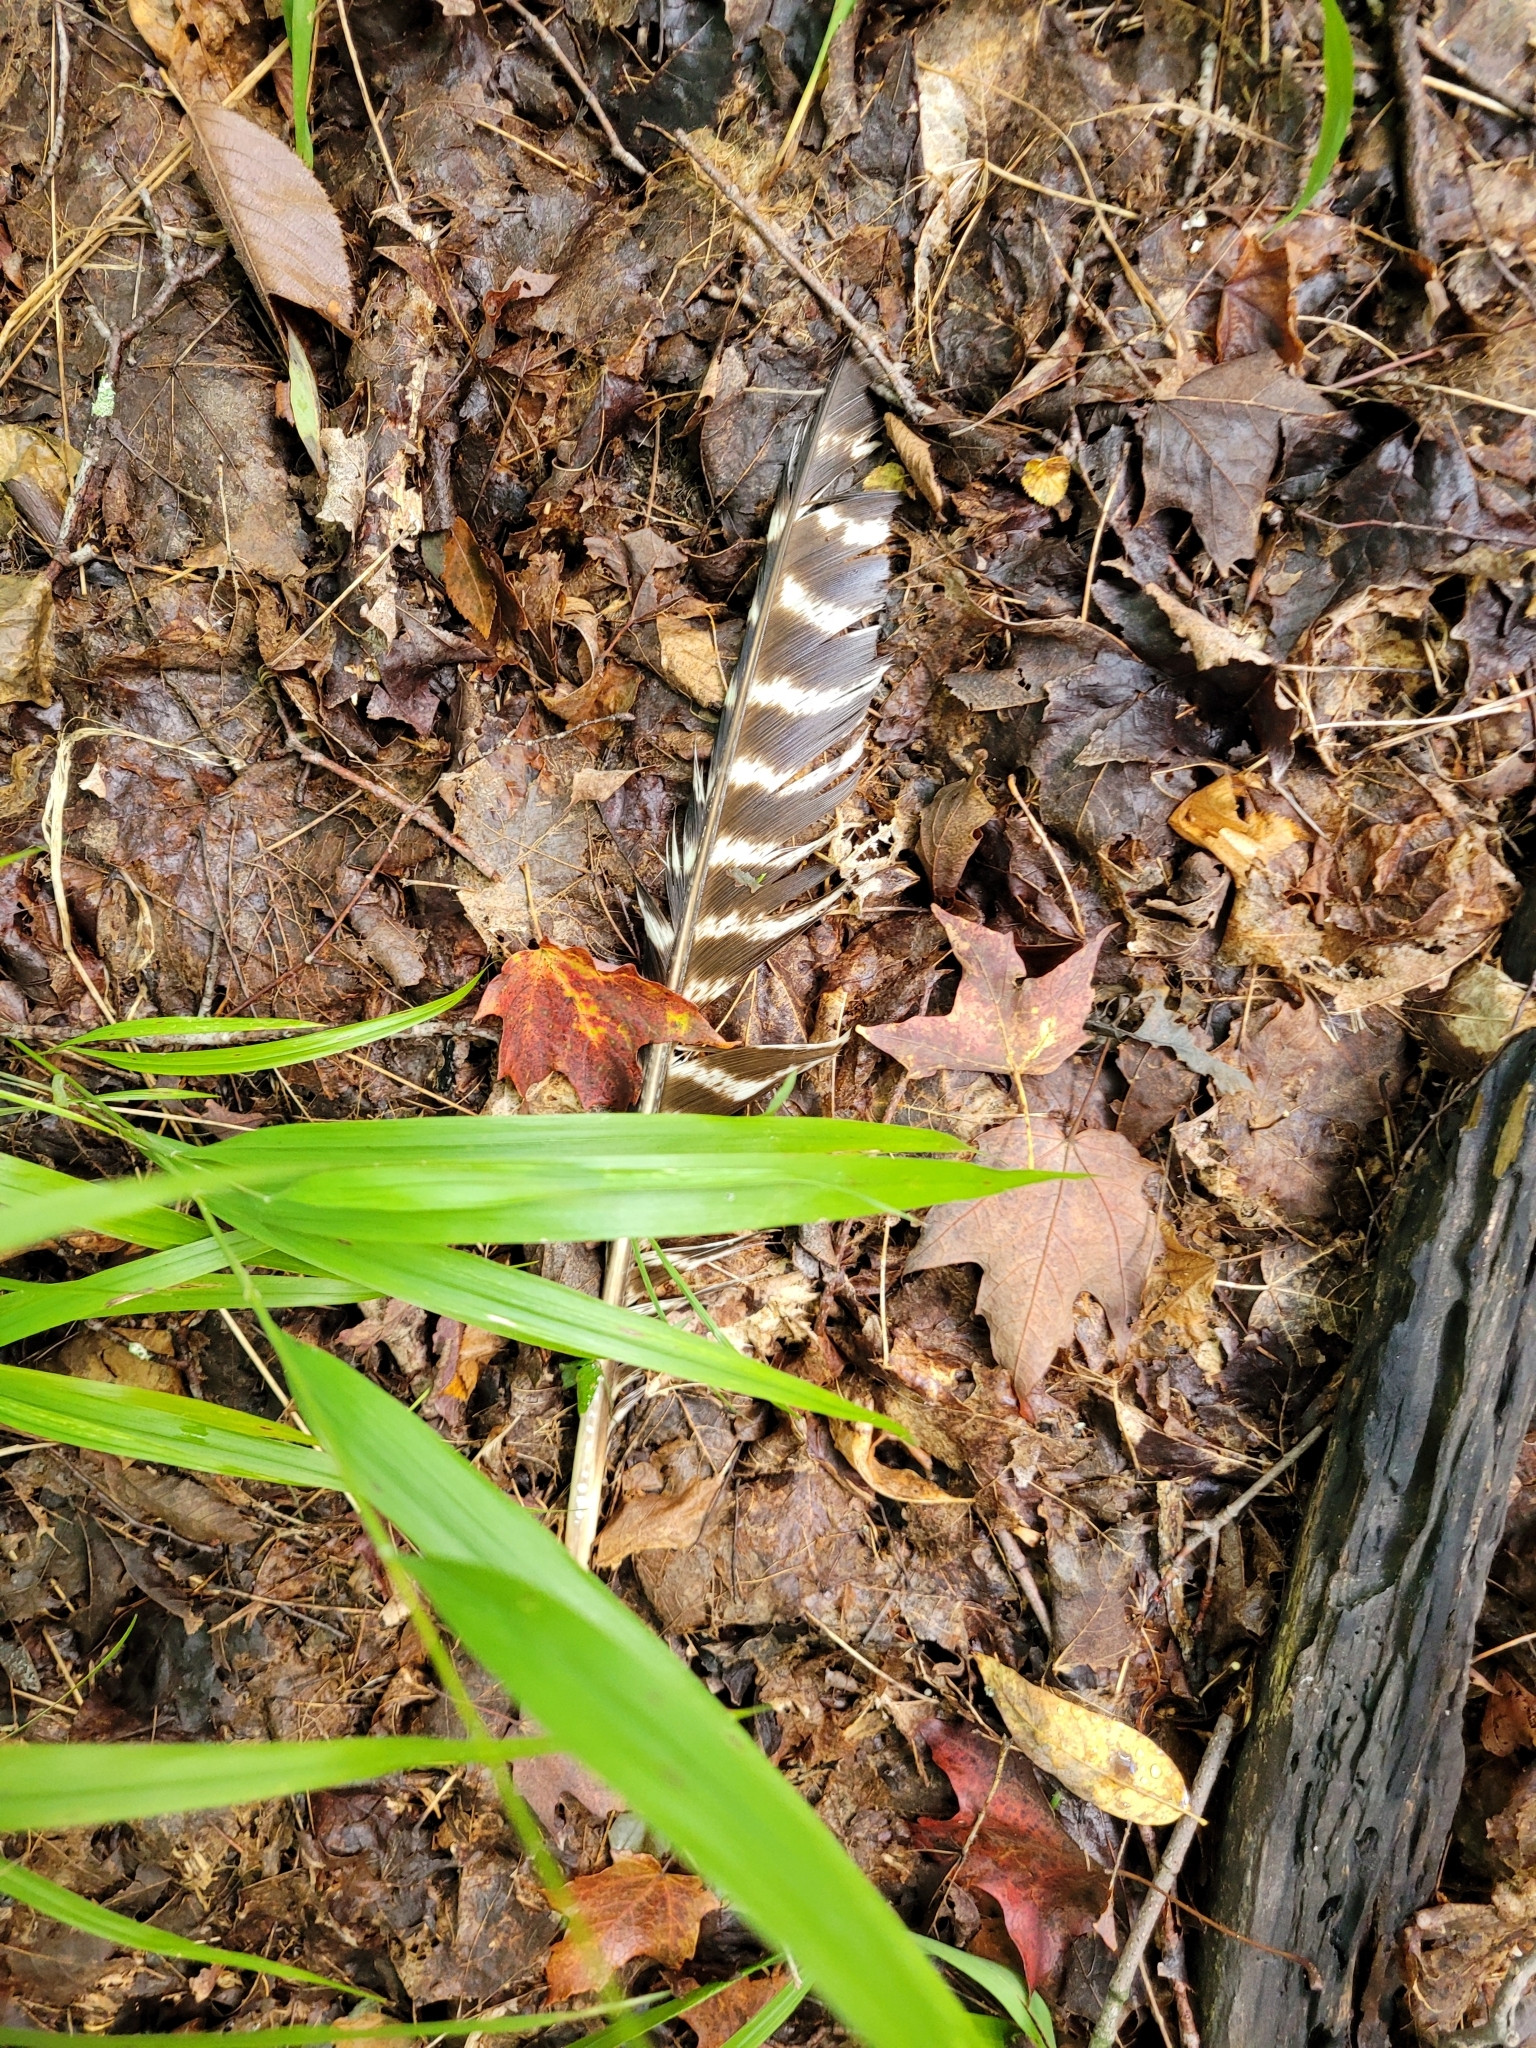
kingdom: Animalia
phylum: Chordata
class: Aves
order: Galliformes
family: Phasianidae
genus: Meleagris
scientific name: Meleagris gallopavo
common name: Wild turkey
